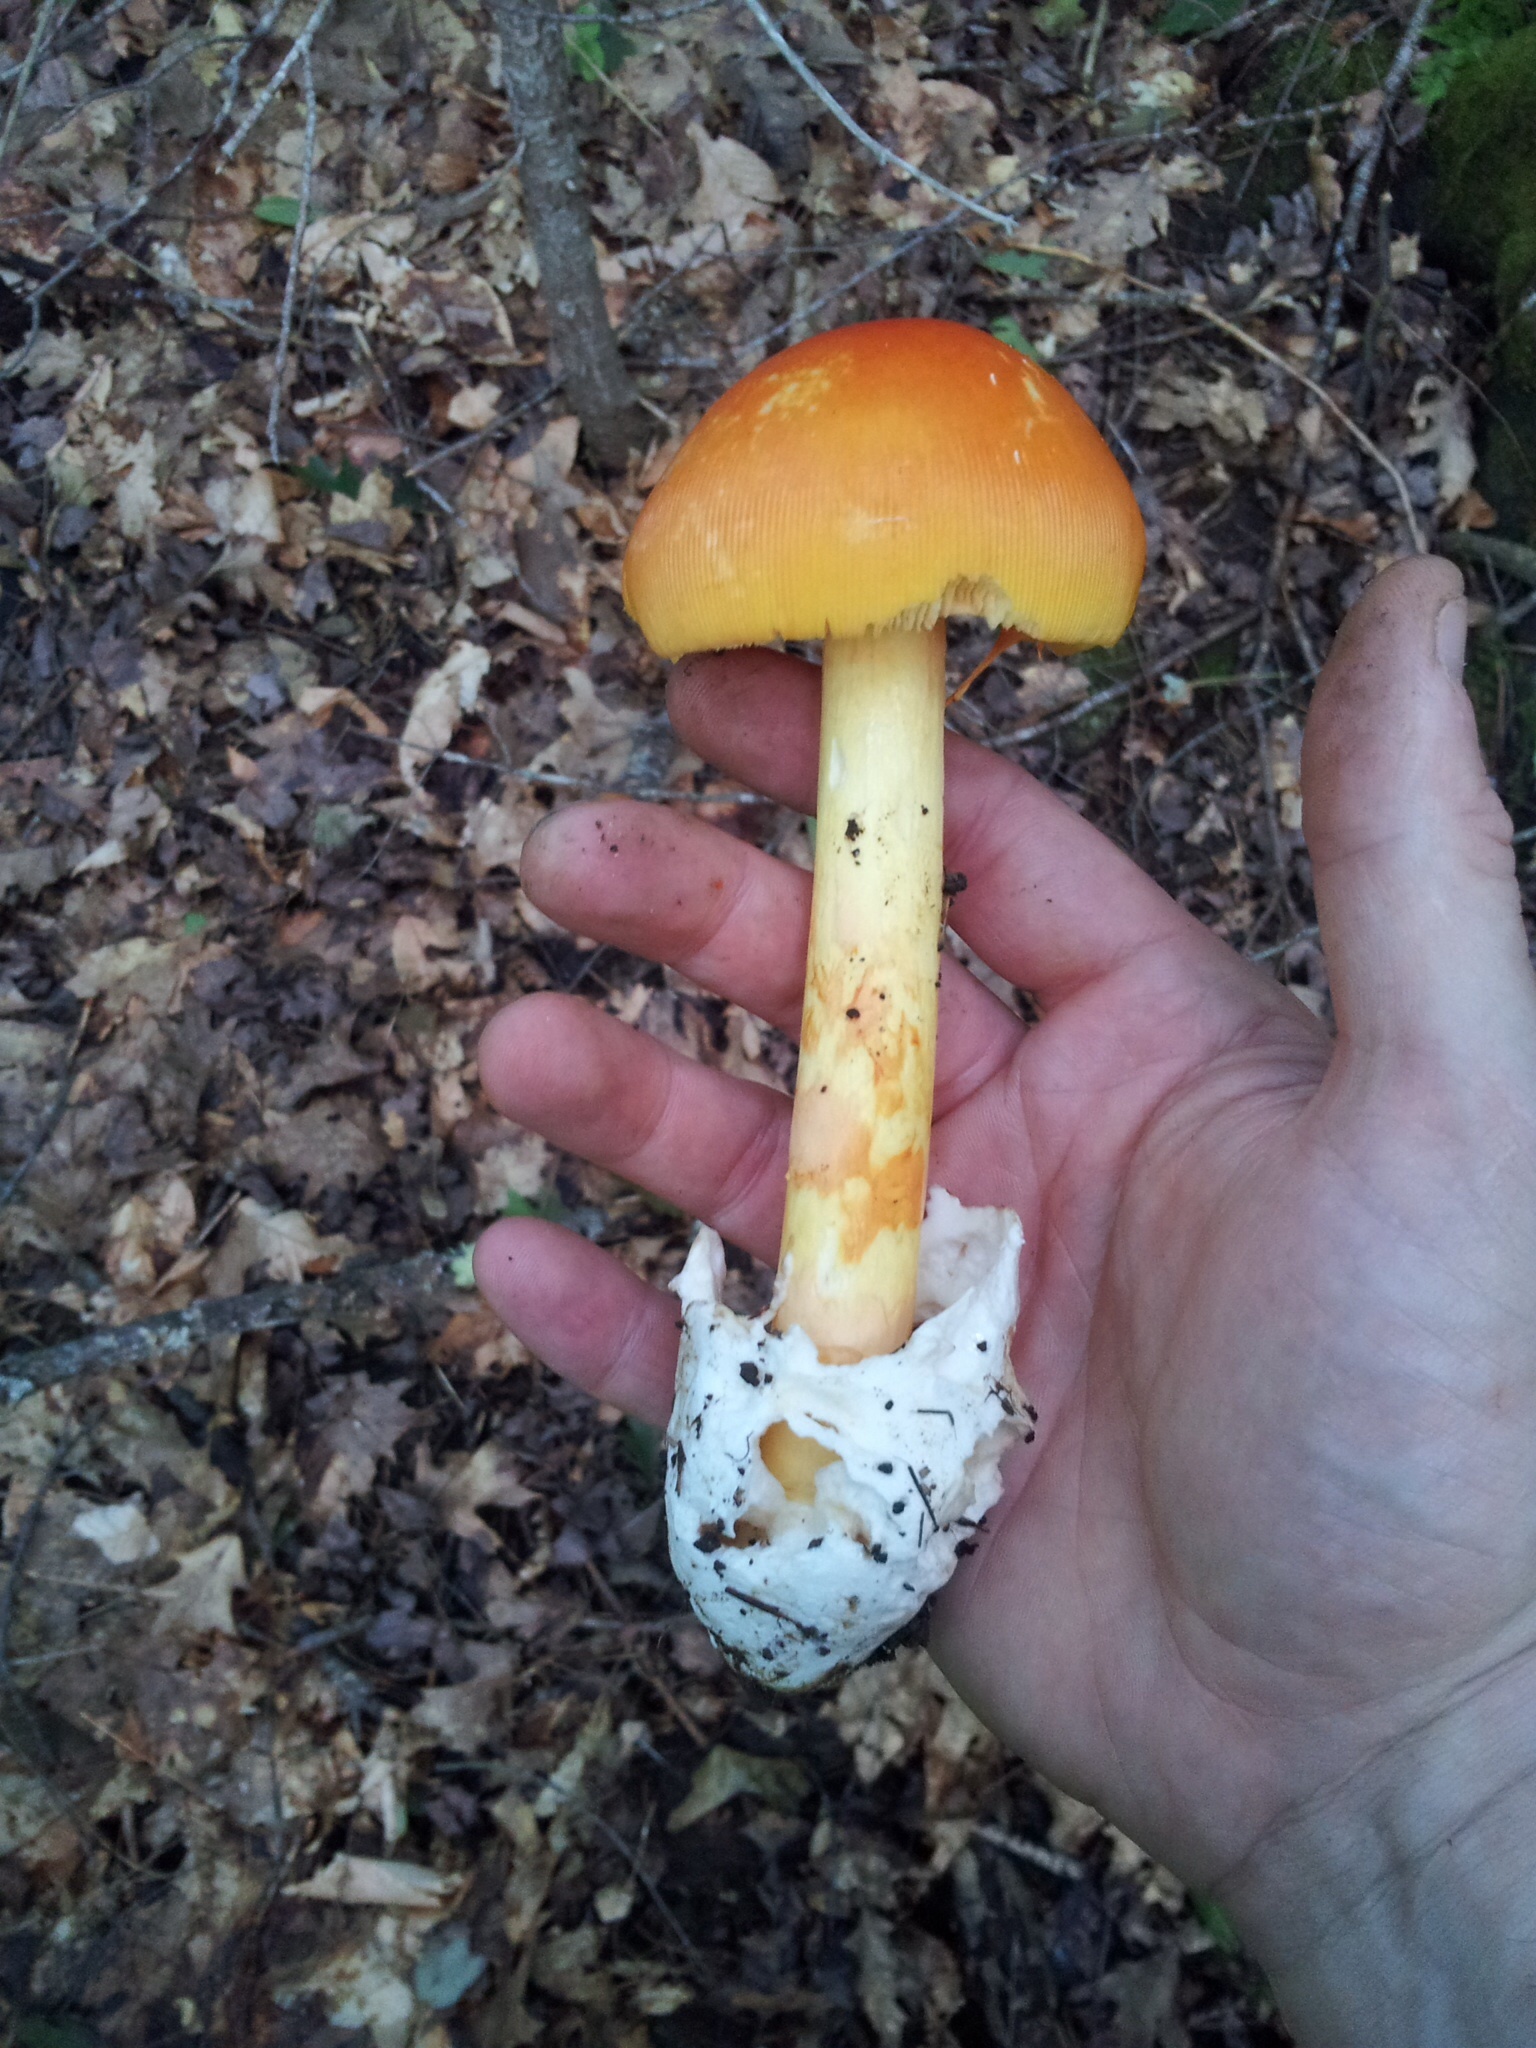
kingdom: Fungi
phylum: Basidiomycota
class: Agaricomycetes
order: Agaricales
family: Amanitaceae
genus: Amanita
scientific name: Amanita jacksonii
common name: Jackson's slender caesar
